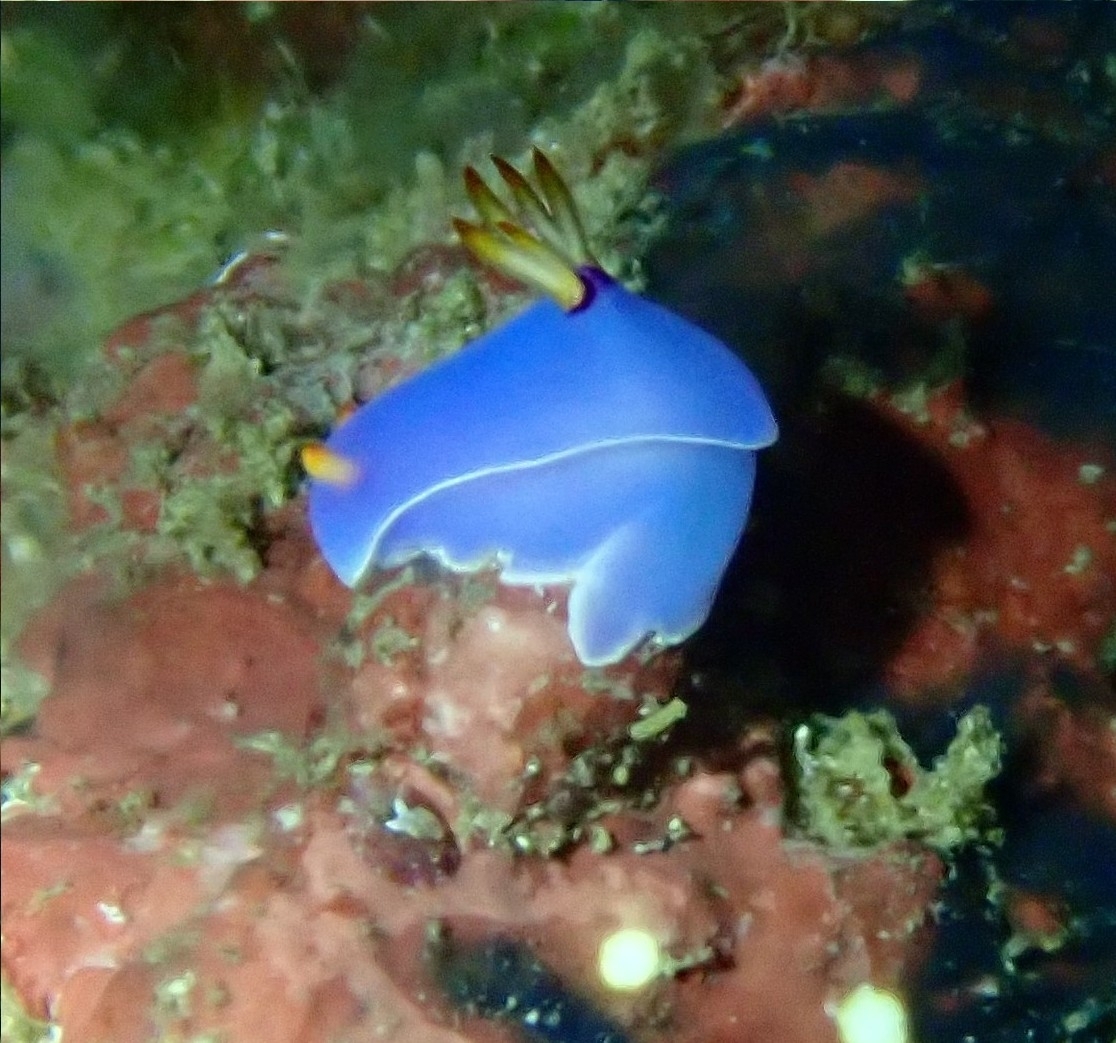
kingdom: Animalia
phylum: Mollusca
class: Gastropoda
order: Nudibranchia
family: Chromodorididae
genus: Hypselodoris
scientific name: Hypselodoris melanesica
